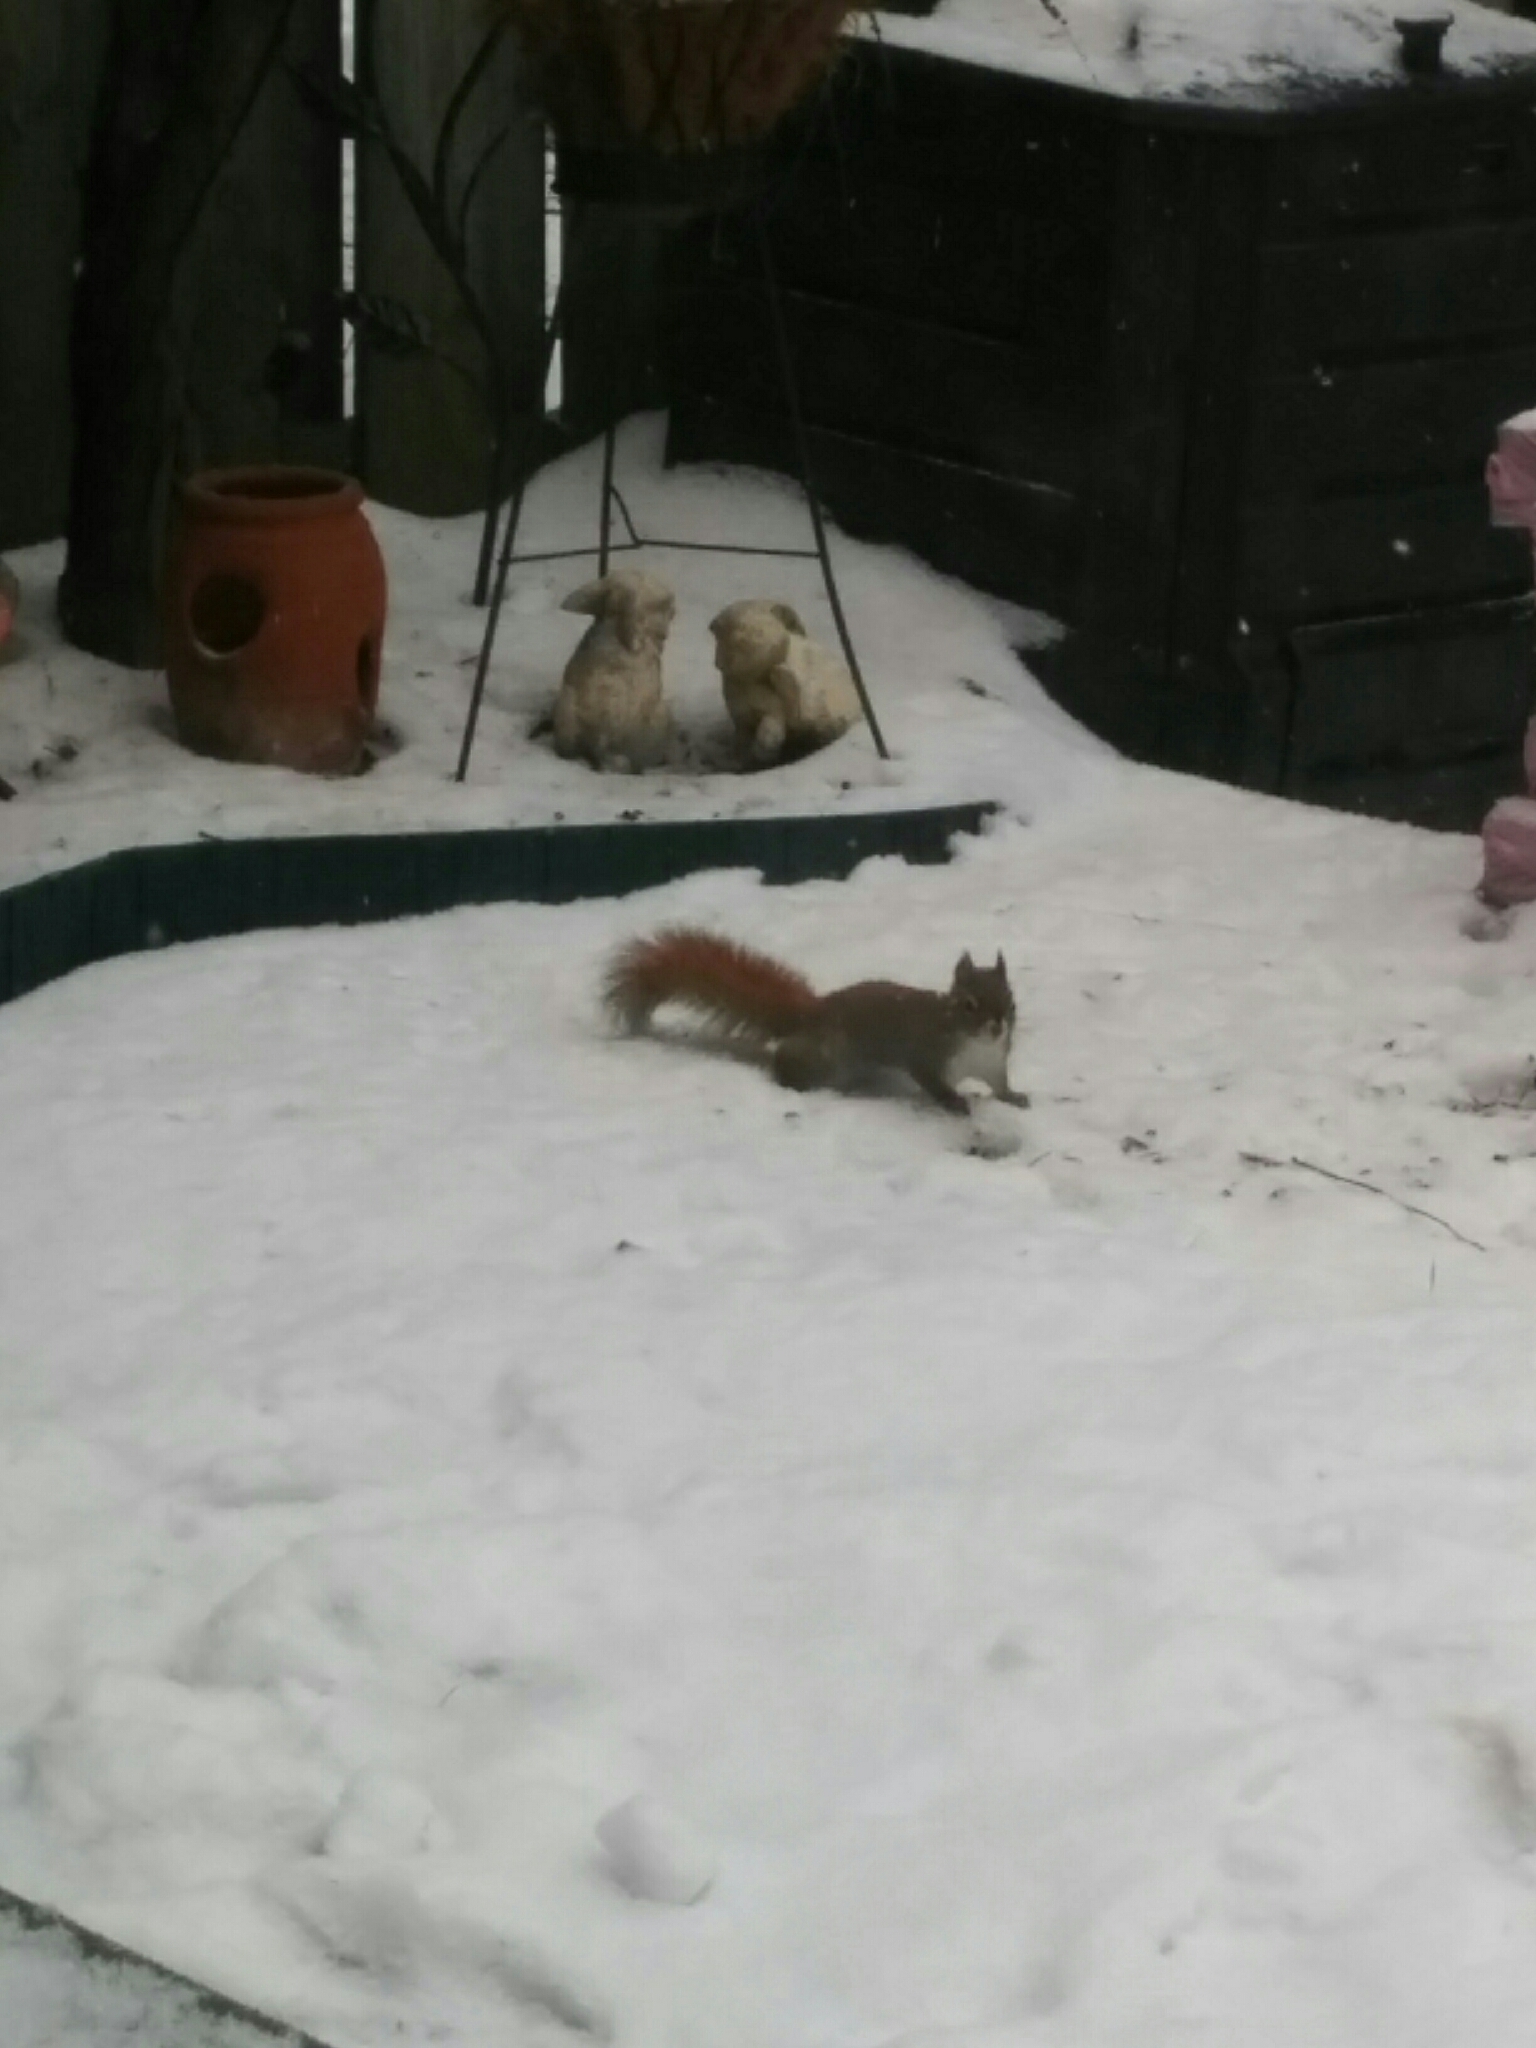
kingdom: Animalia
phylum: Chordata
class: Mammalia
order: Rodentia
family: Sciuridae
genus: Tamiasciurus
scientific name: Tamiasciurus hudsonicus
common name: Red squirrel
